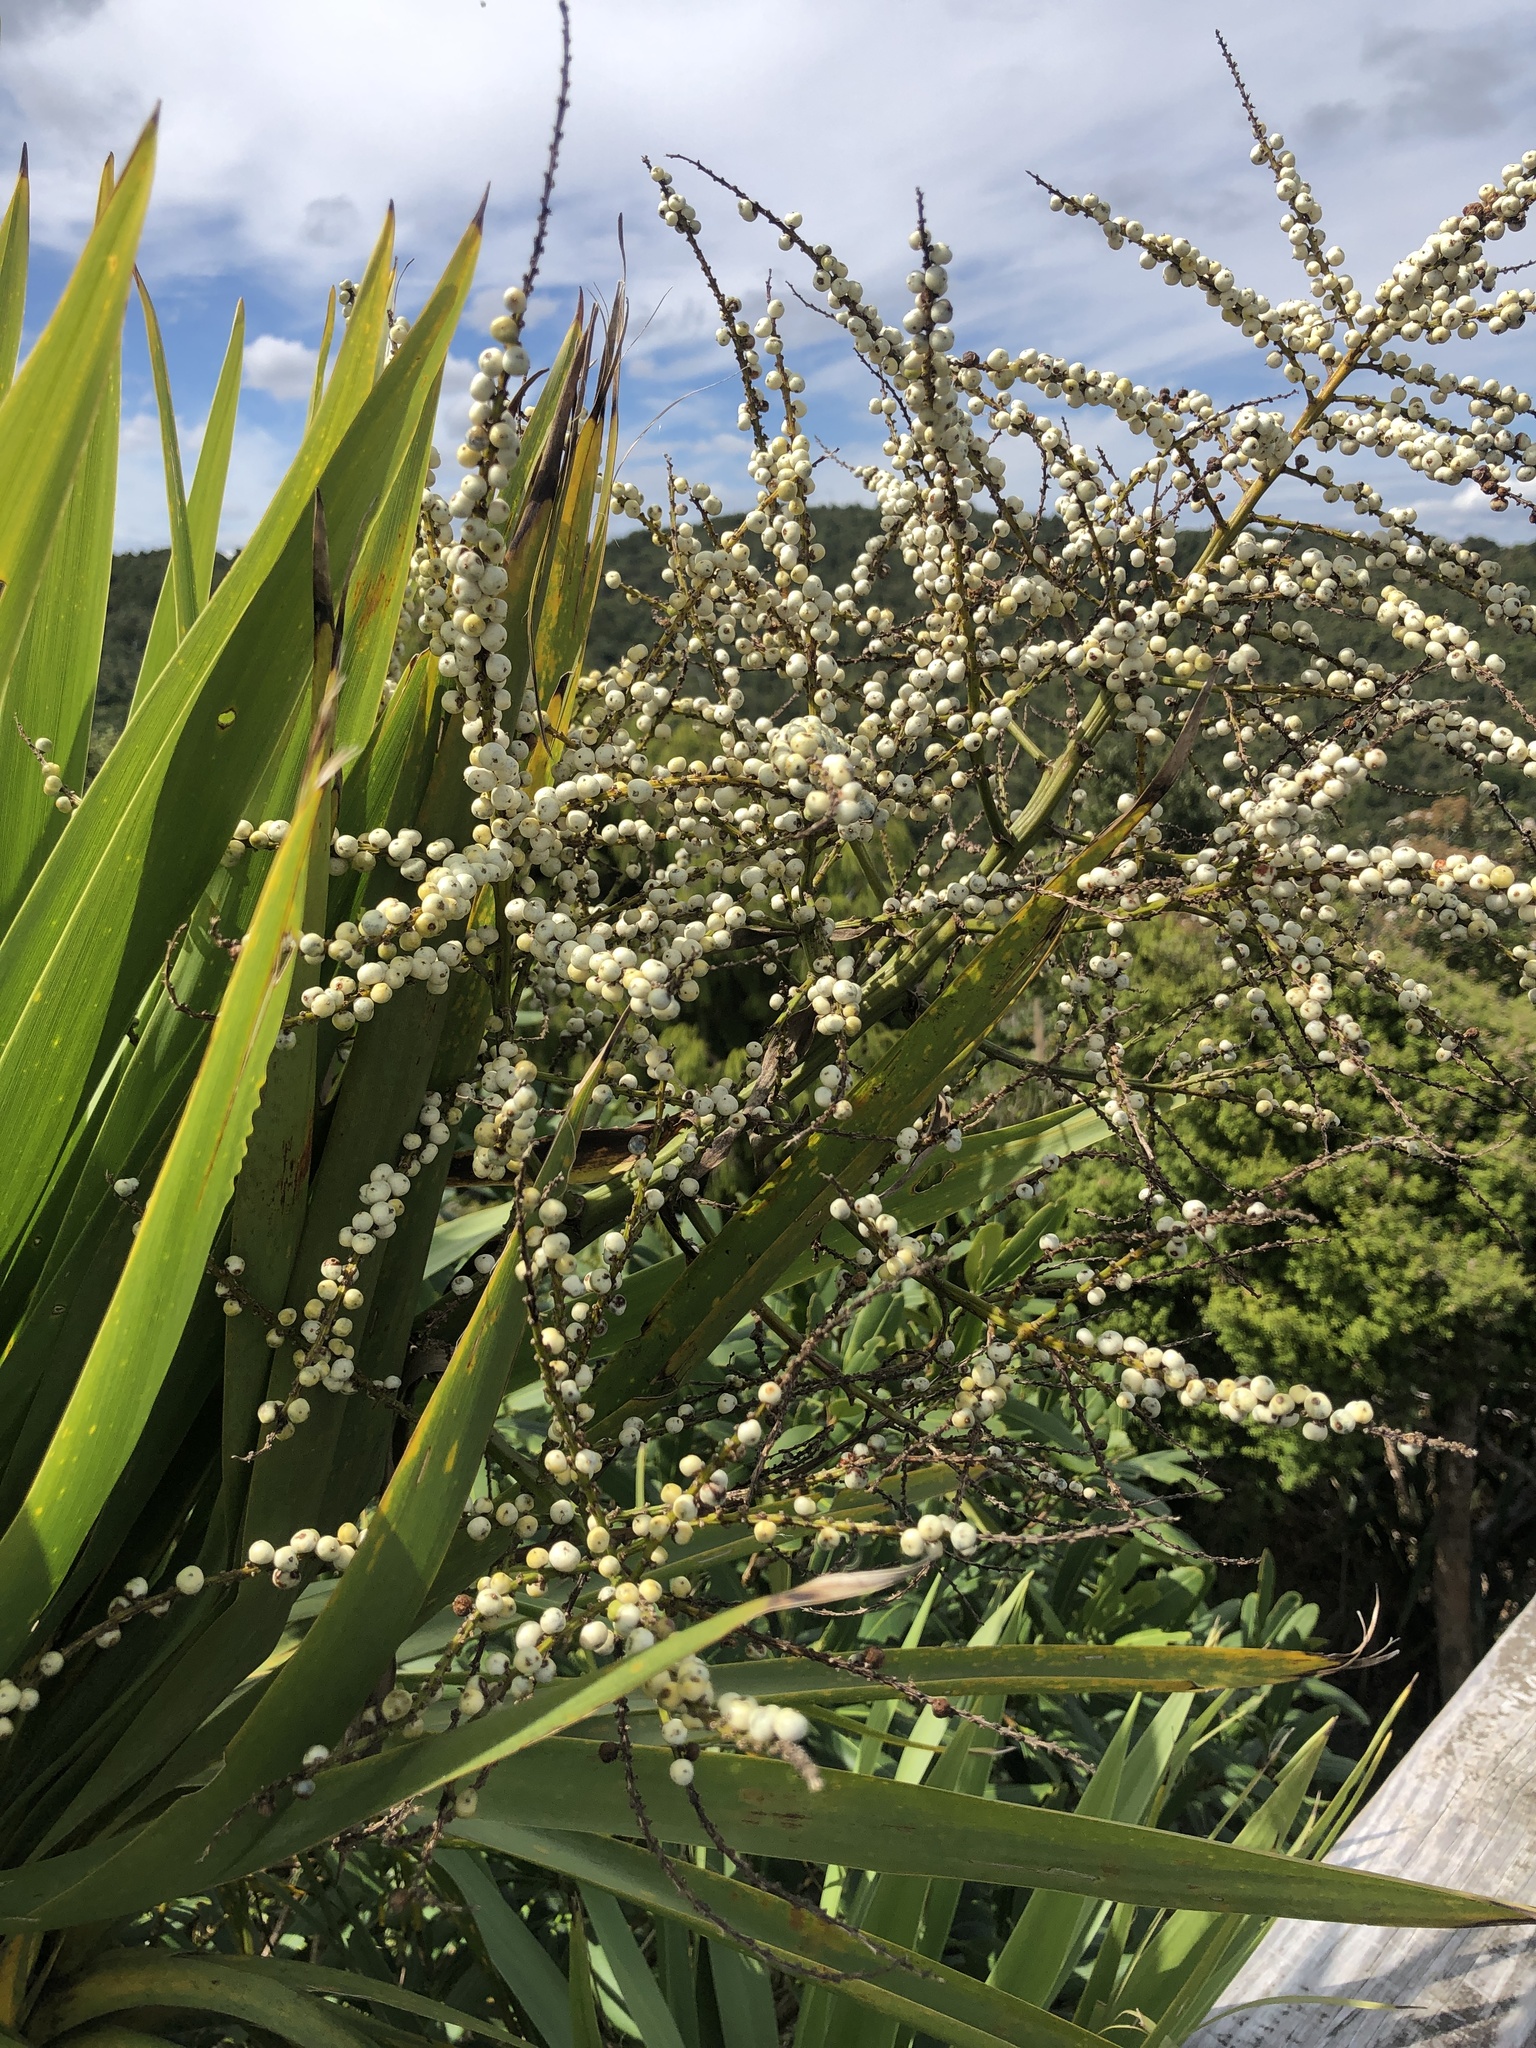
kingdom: Plantae
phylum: Tracheophyta
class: Liliopsida
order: Asparagales
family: Asparagaceae
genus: Cordyline
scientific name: Cordyline australis
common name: Cabbage-palm
